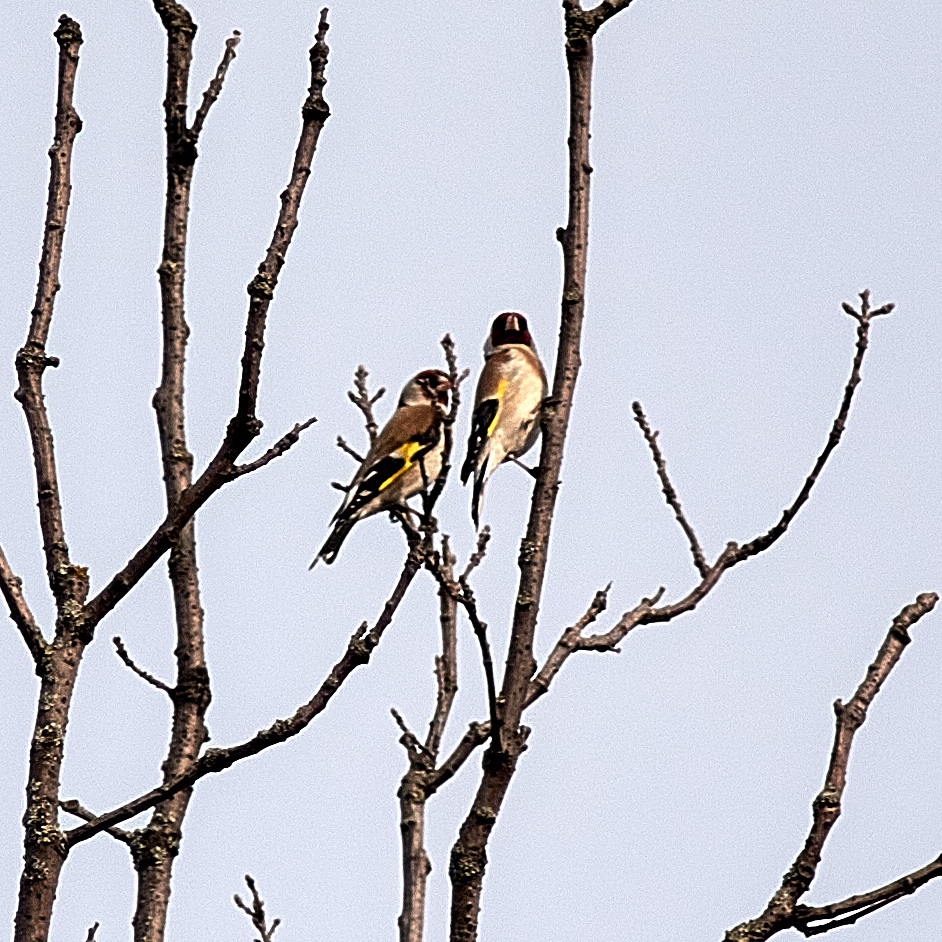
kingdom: Animalia
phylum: Chordata
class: Aves
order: Passeriformes
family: Fringillidae
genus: Carduelis
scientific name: Carduelis carduelis
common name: European goldfinch
